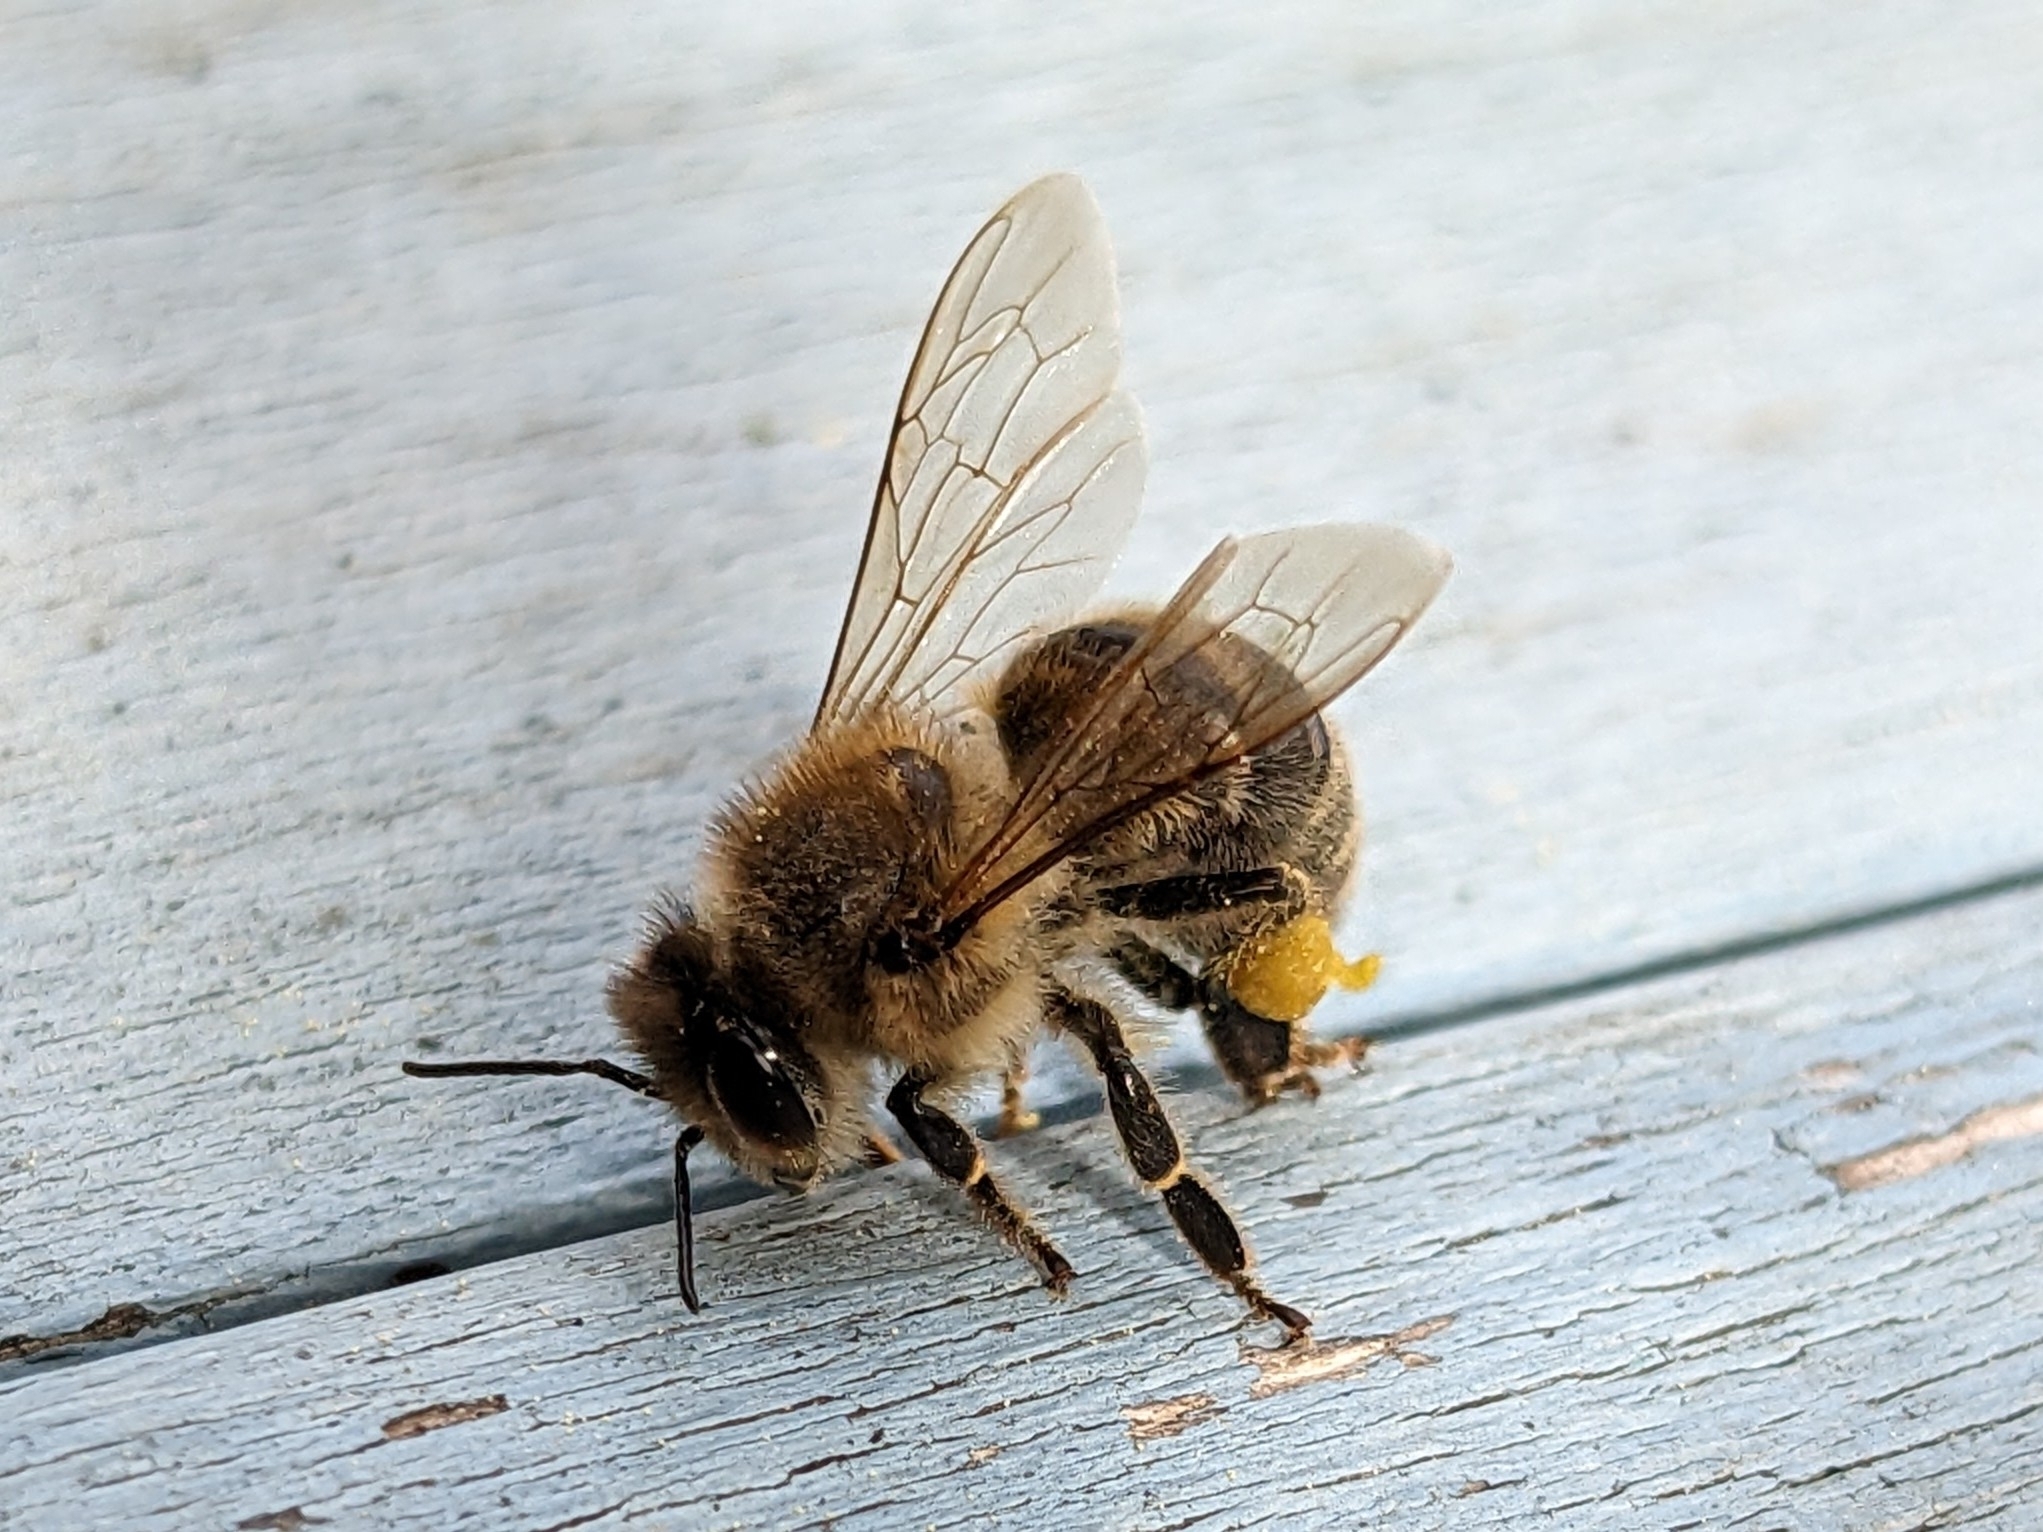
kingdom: Animalia
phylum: Arthropoda
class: Insecta
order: Hymenoptera
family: Apidae
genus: Apis
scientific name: Apis mellifera
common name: Honey bee
